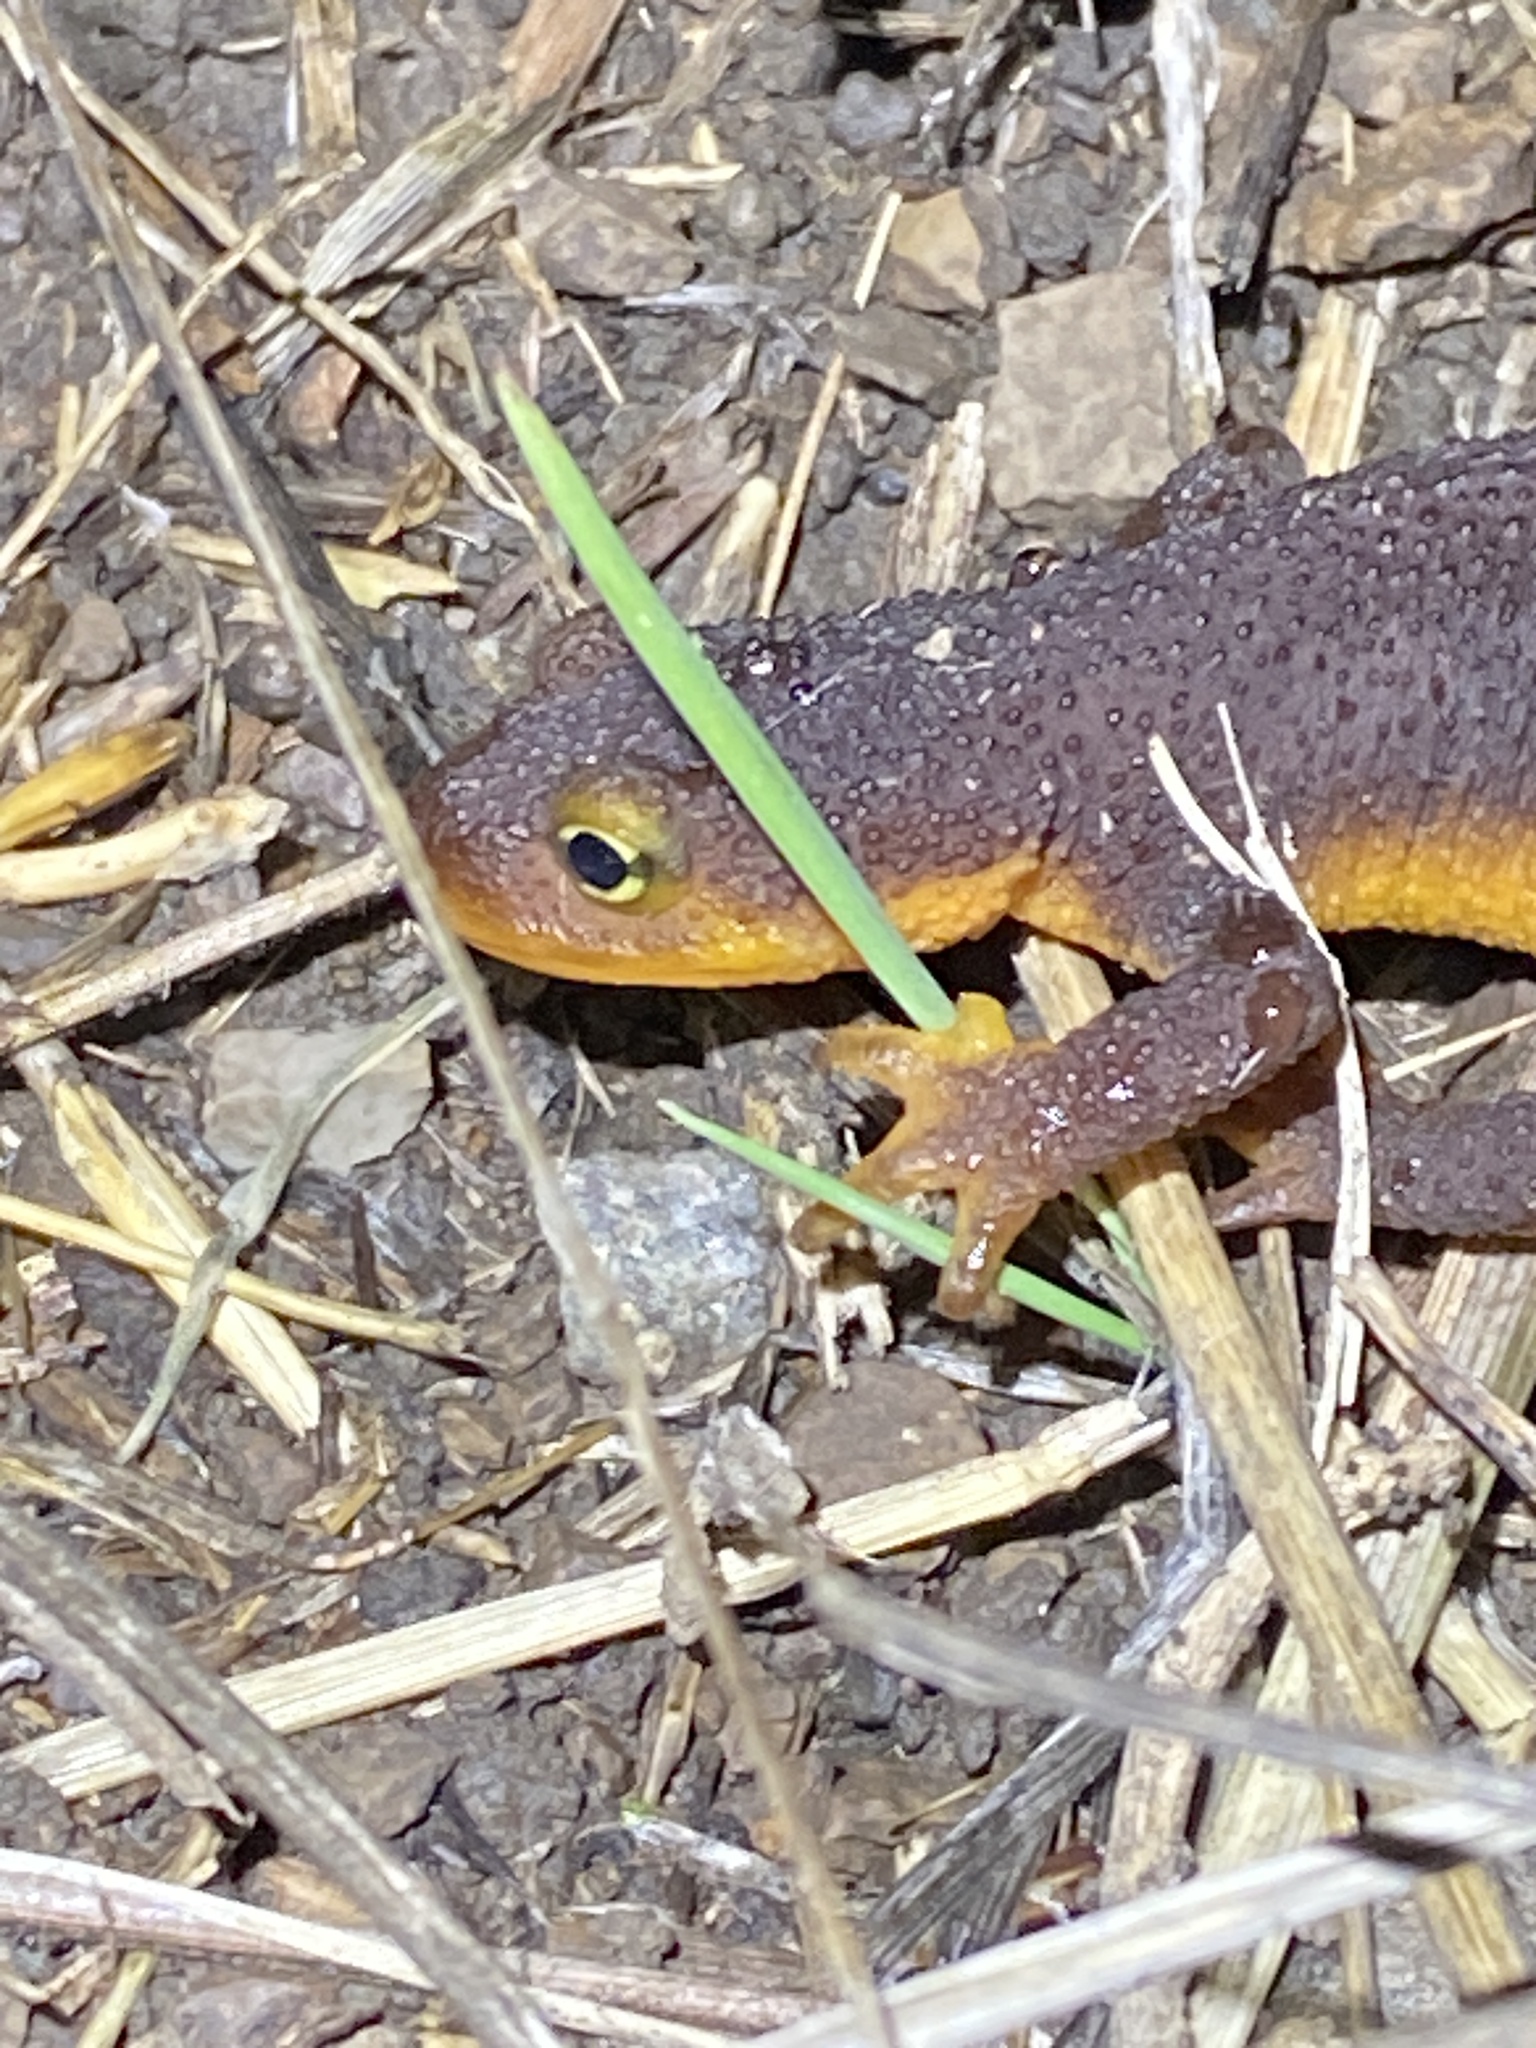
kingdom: Animalia
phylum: Chordata
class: Amphibia
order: Caudata
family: Salamandridae
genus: Taricha
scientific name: Taricha torosa
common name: California newt
